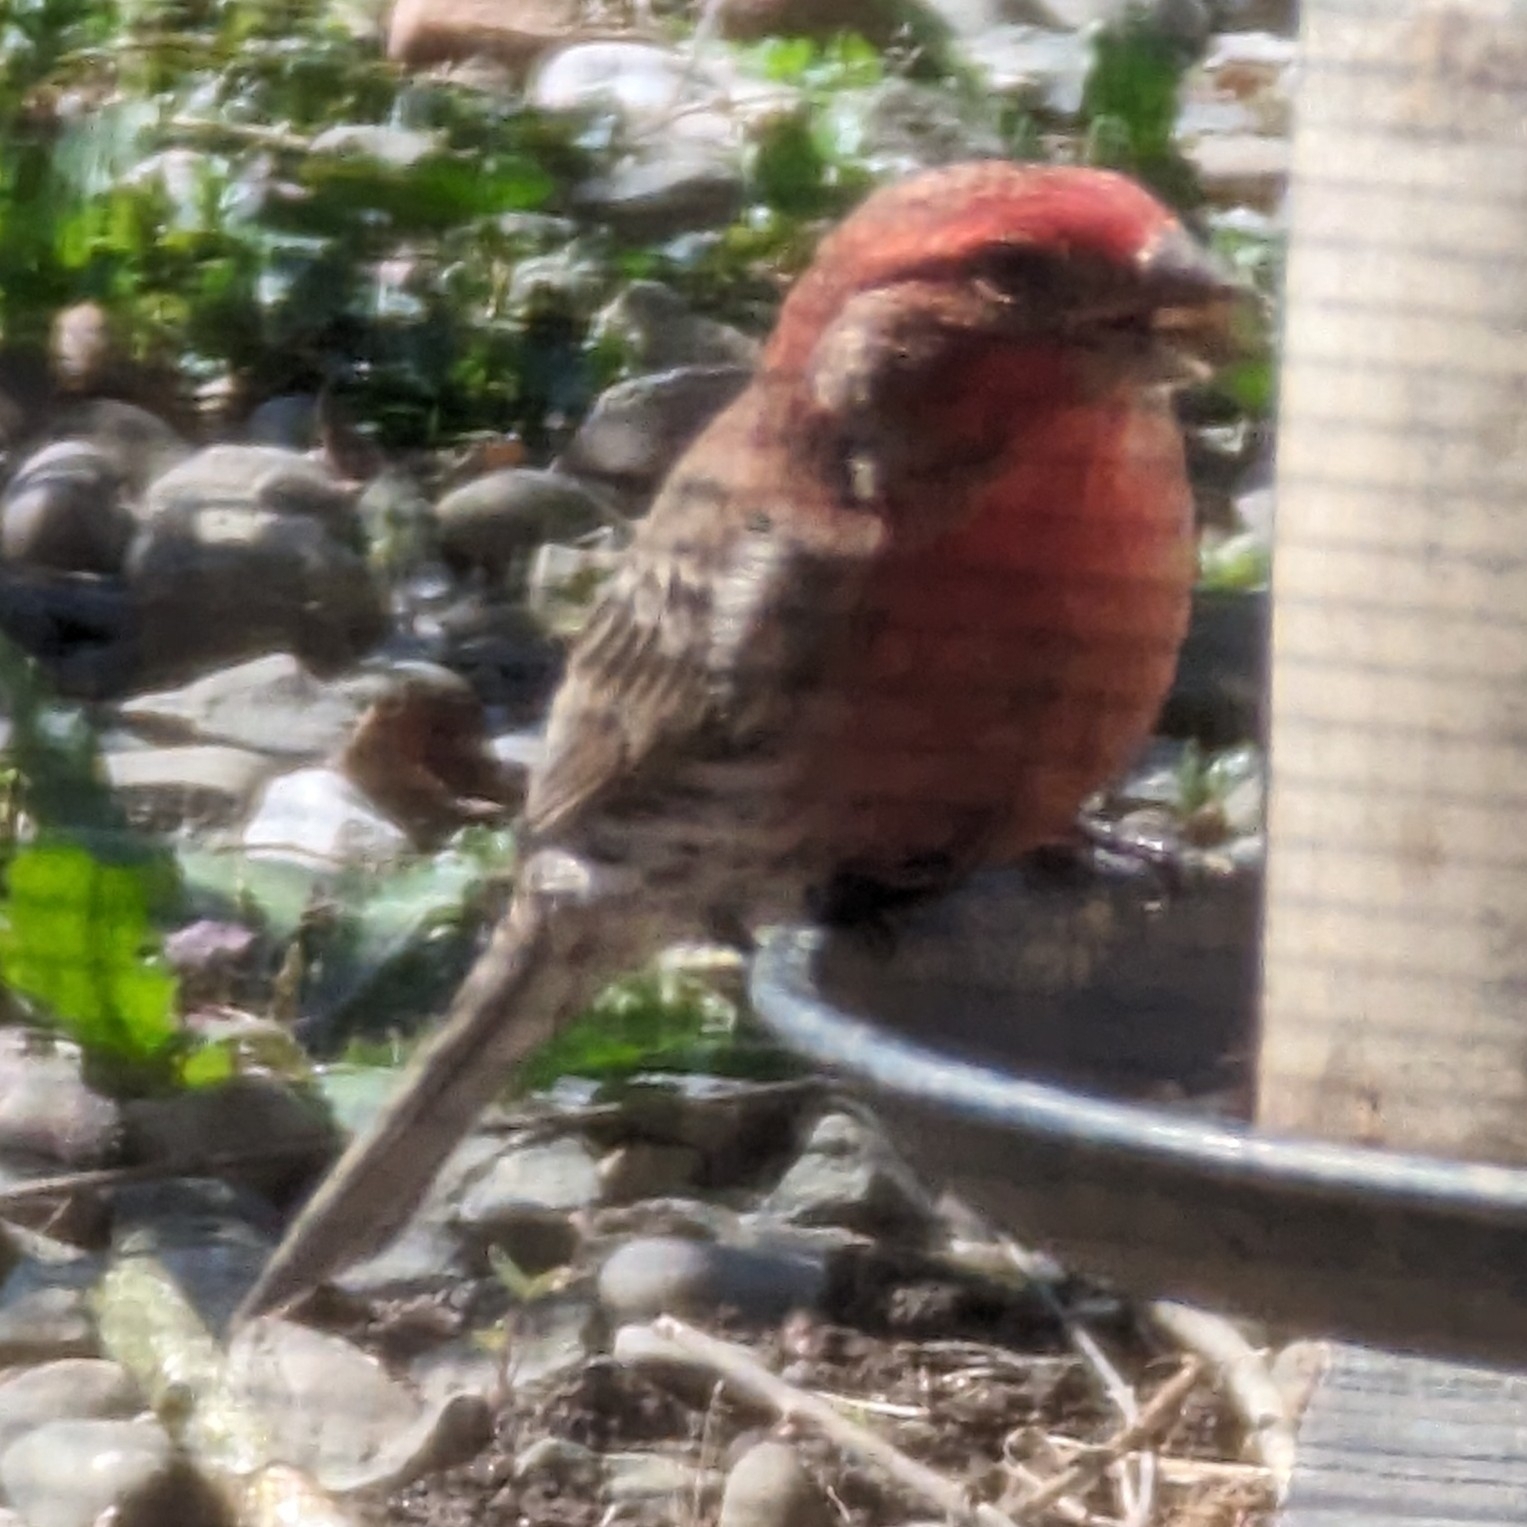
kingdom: Animalia
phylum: Chordata
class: Aves
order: Passeriformes
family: Fringillidae
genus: Haemorhous
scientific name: Haemorhous mexicanus
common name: House finch
